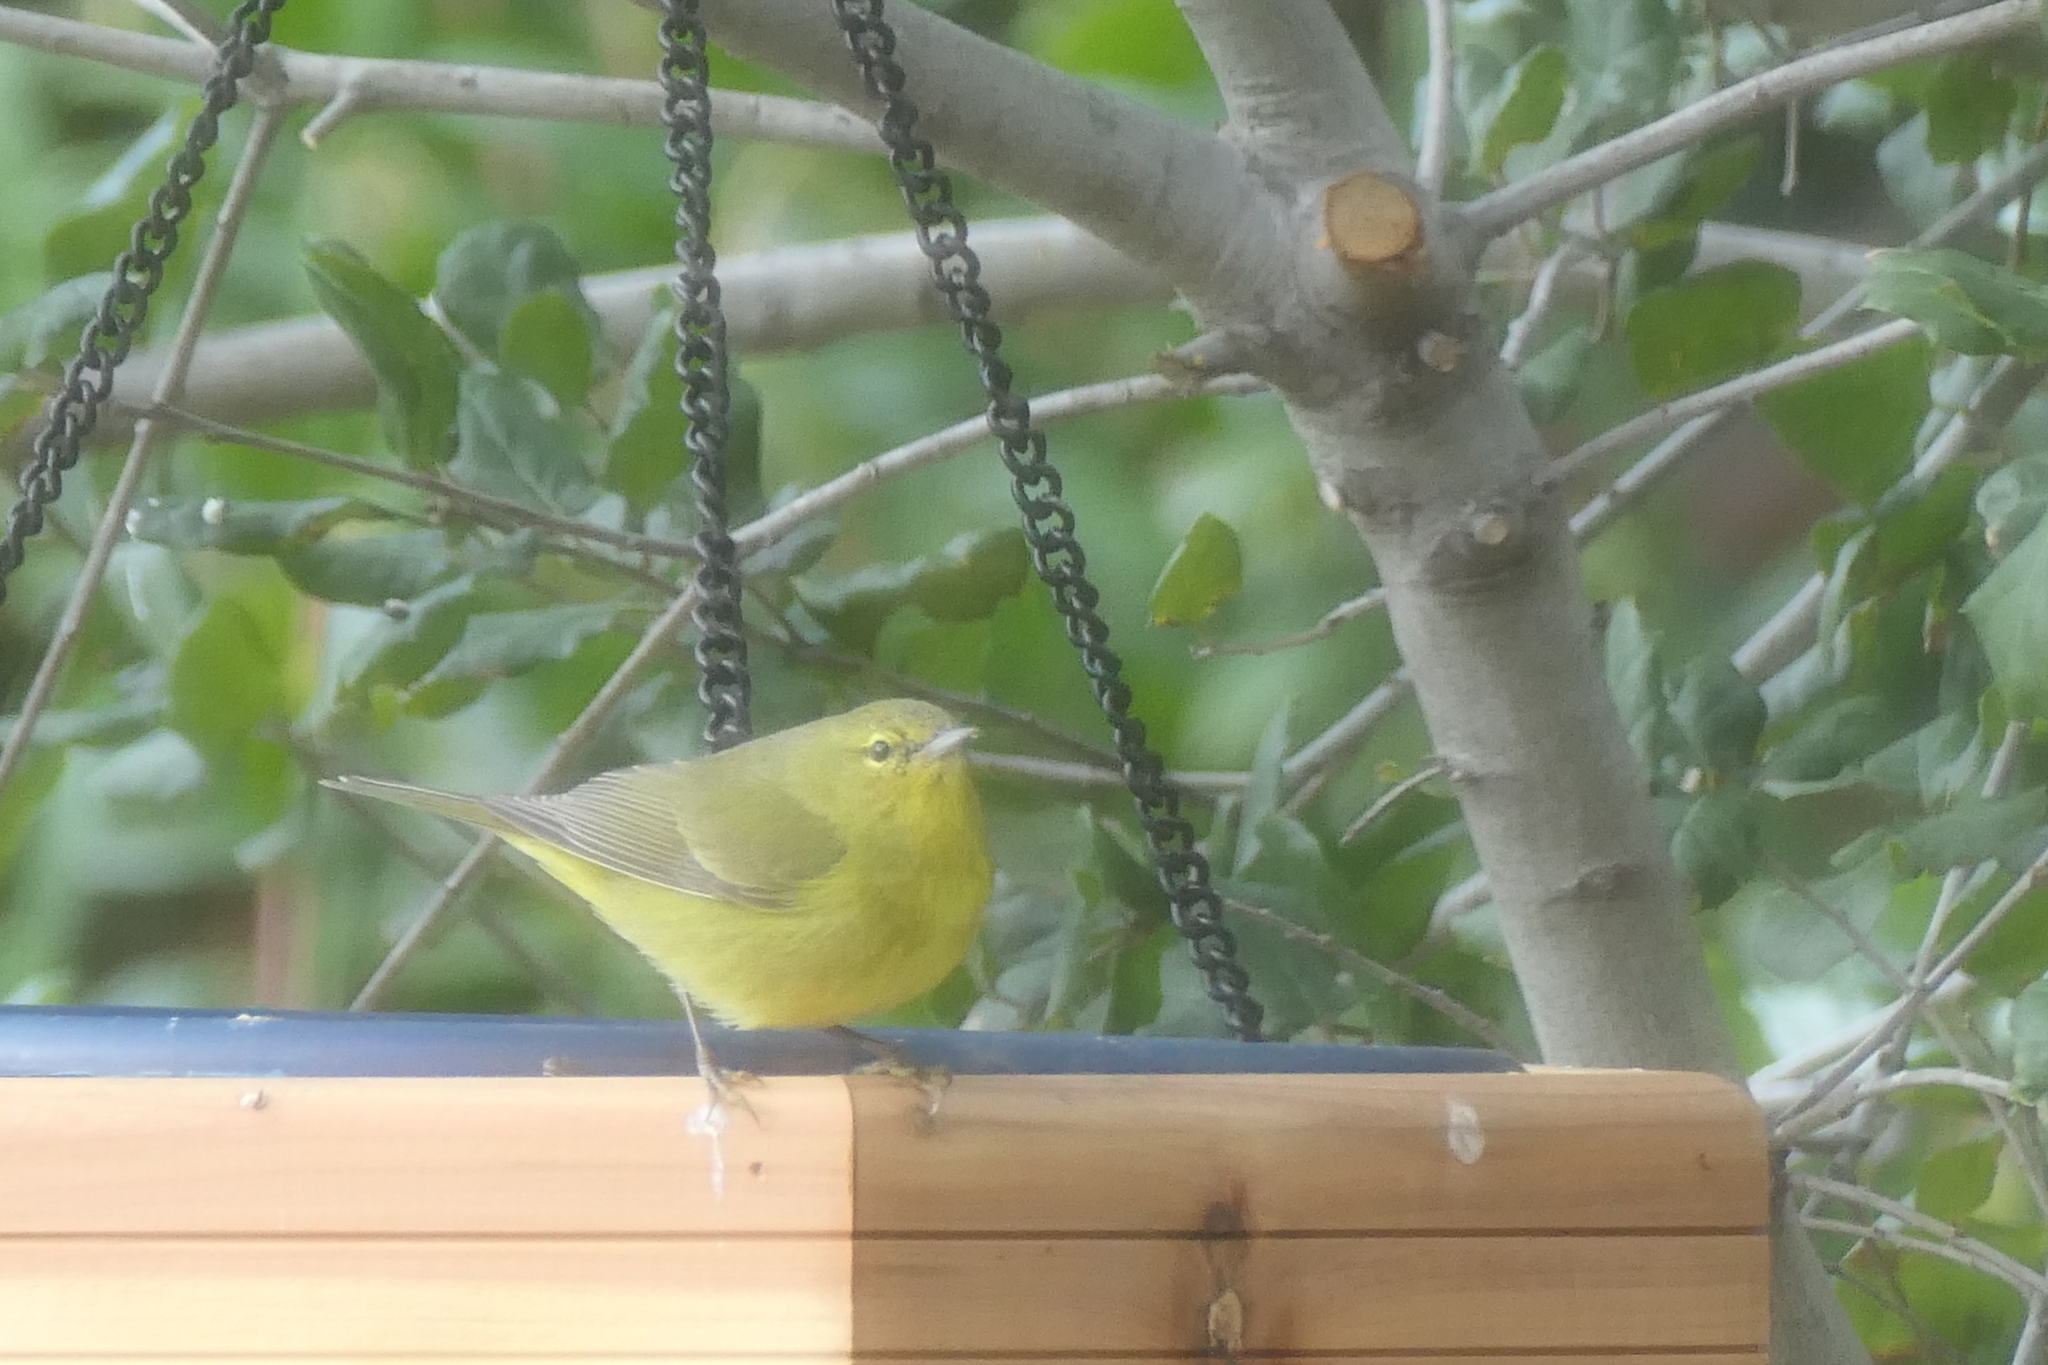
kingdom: Animalia
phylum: Chordata
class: Aves
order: Passeriformes
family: Parulidae
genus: Leiothlypis
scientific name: Leiothlypis celata
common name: Orange-crowned warbler
